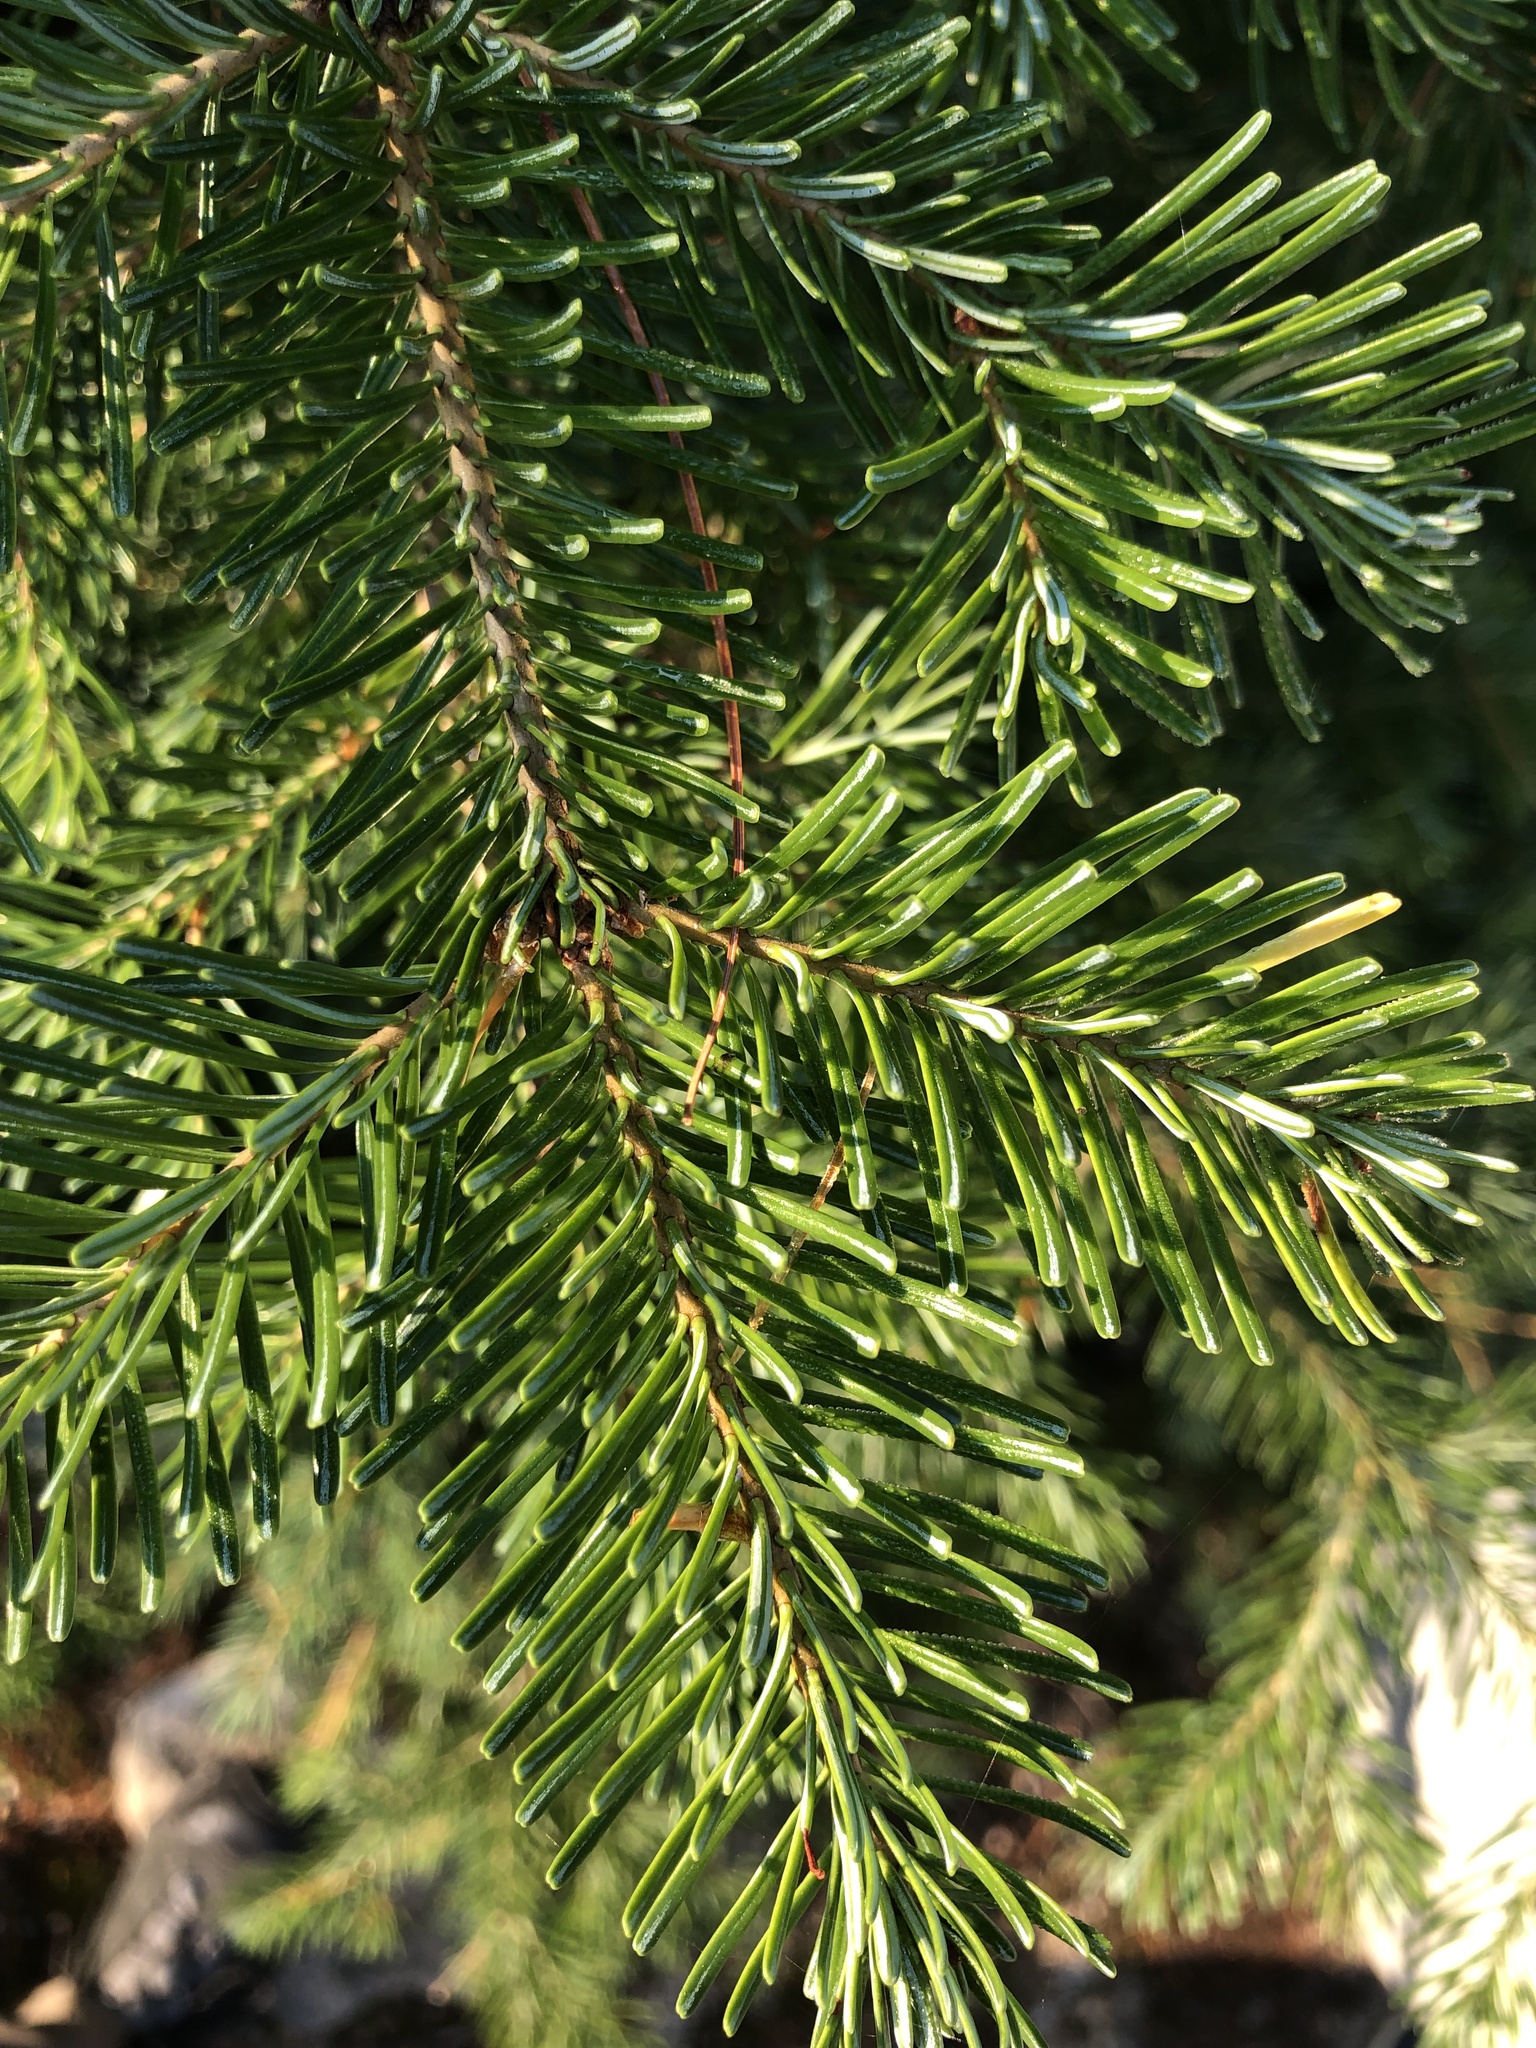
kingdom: Plantae
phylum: Tracheophyta
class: Pinopsida
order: Pinales
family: Pinaceae
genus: Abies
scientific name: Abies lasiocarpa
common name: Subalpine fir
